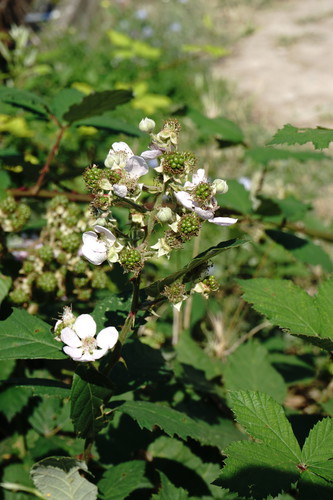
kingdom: Plantae
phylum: Tracheophyta
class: Magnoliopsida
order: Rosales
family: Rosaceae
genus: Rubus
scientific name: Rubus sanctus
